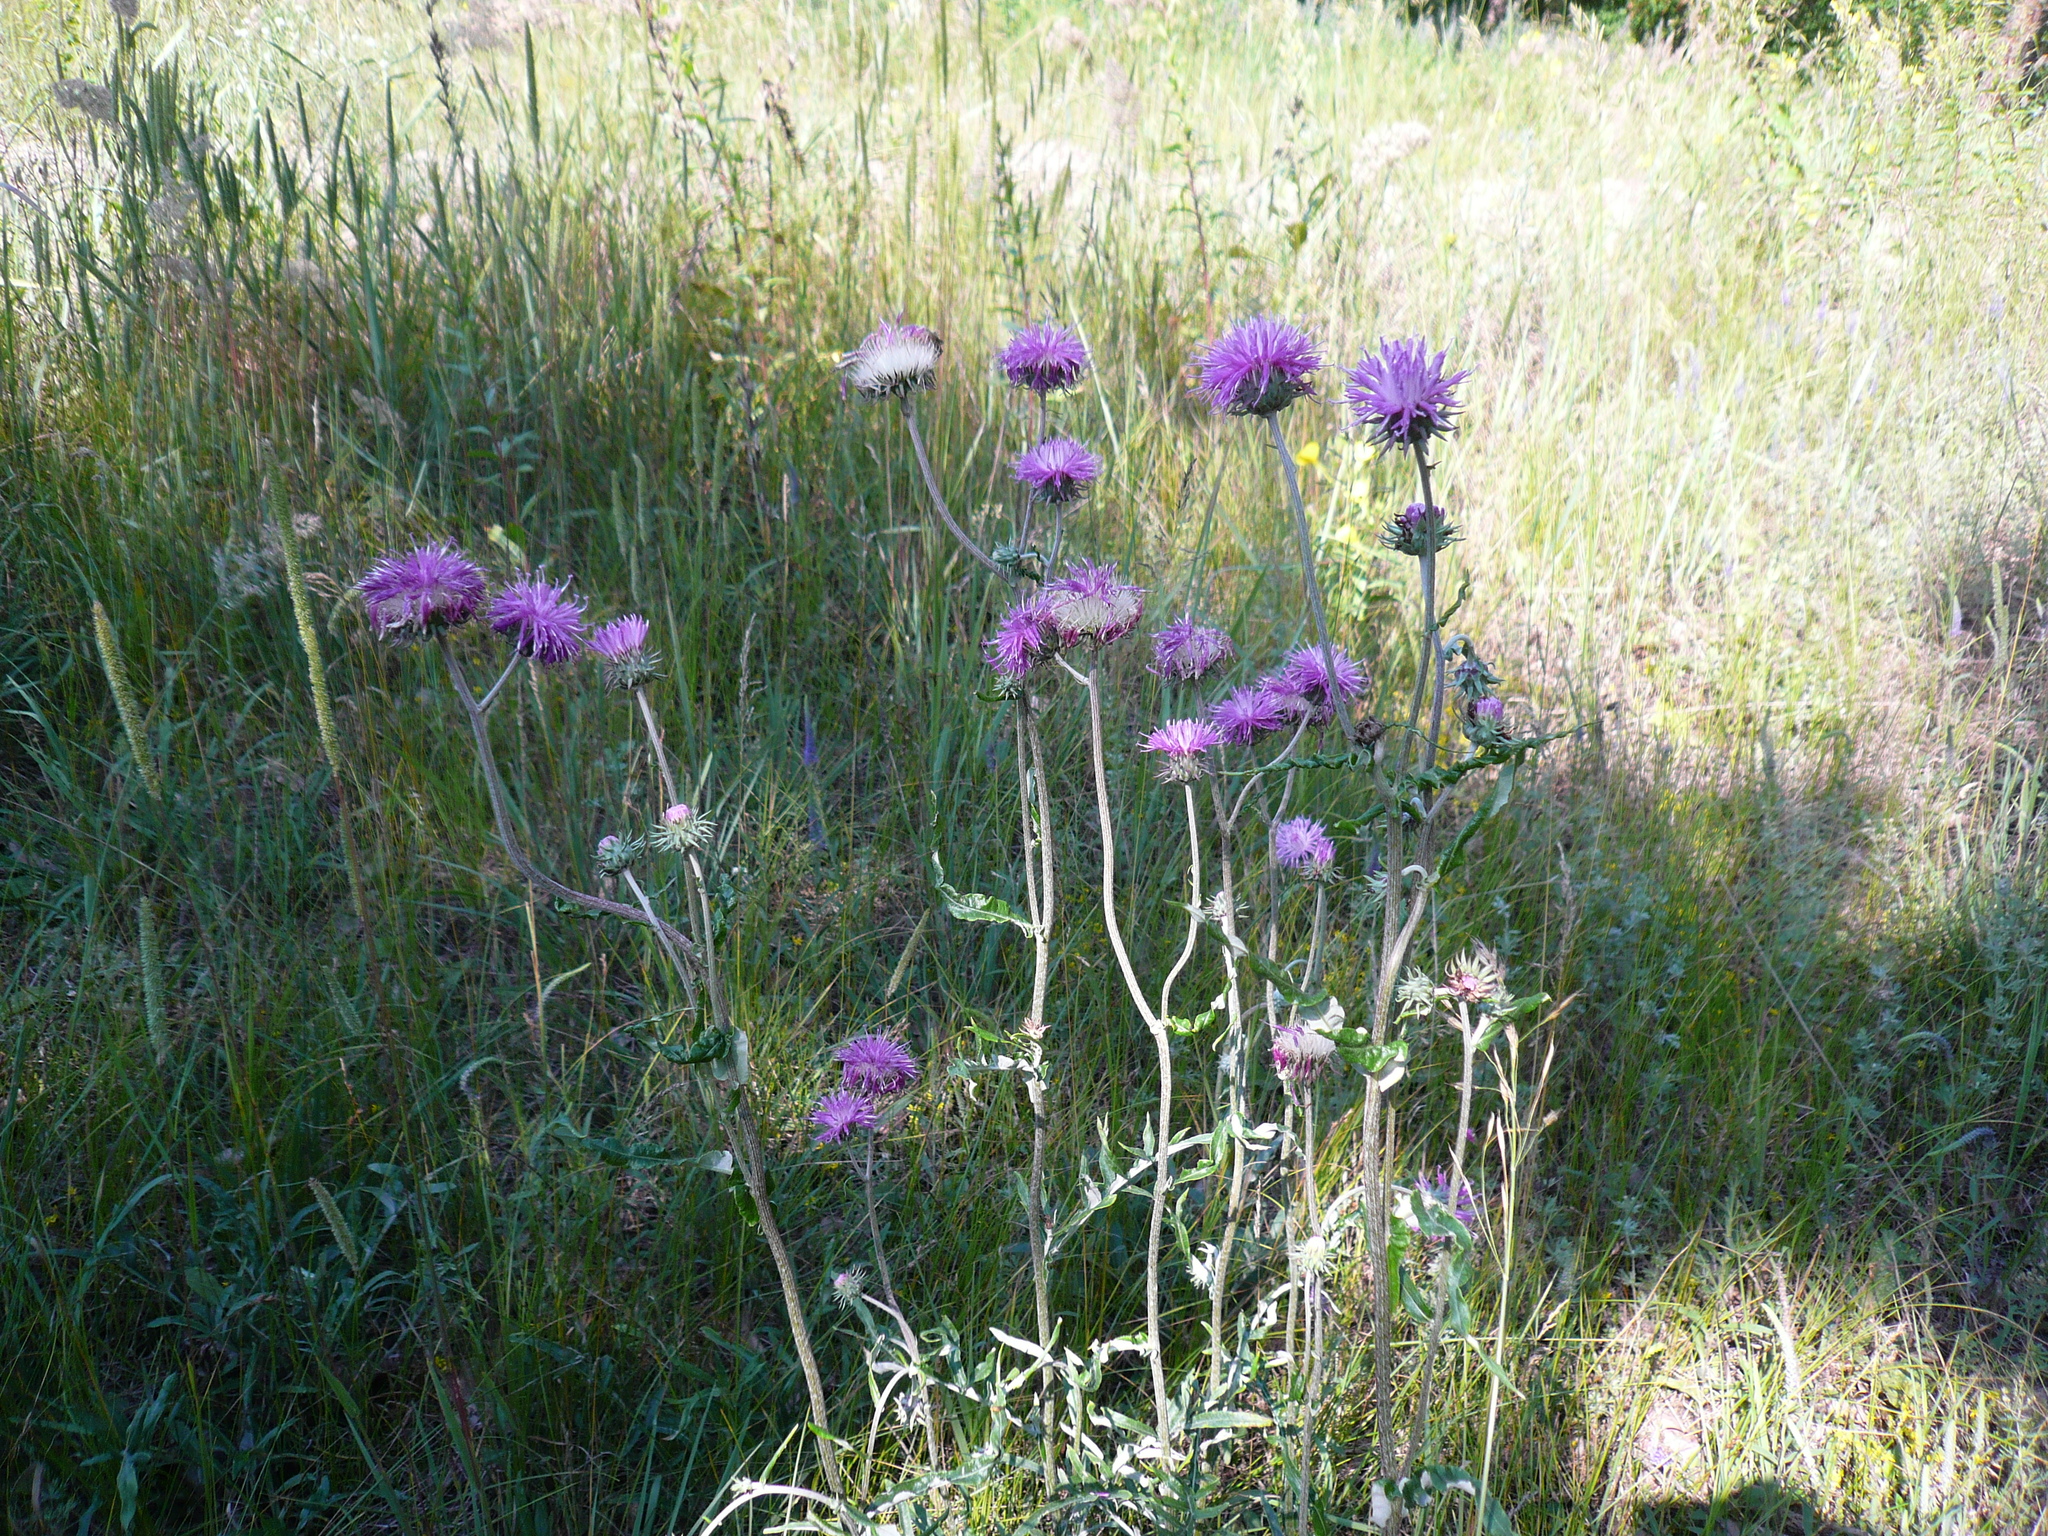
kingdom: Plantae
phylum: Tracheophyta
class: Magnoliopsida
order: Asterales
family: Asteraceae
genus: Jurinea
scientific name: Jurinea cyanoides
